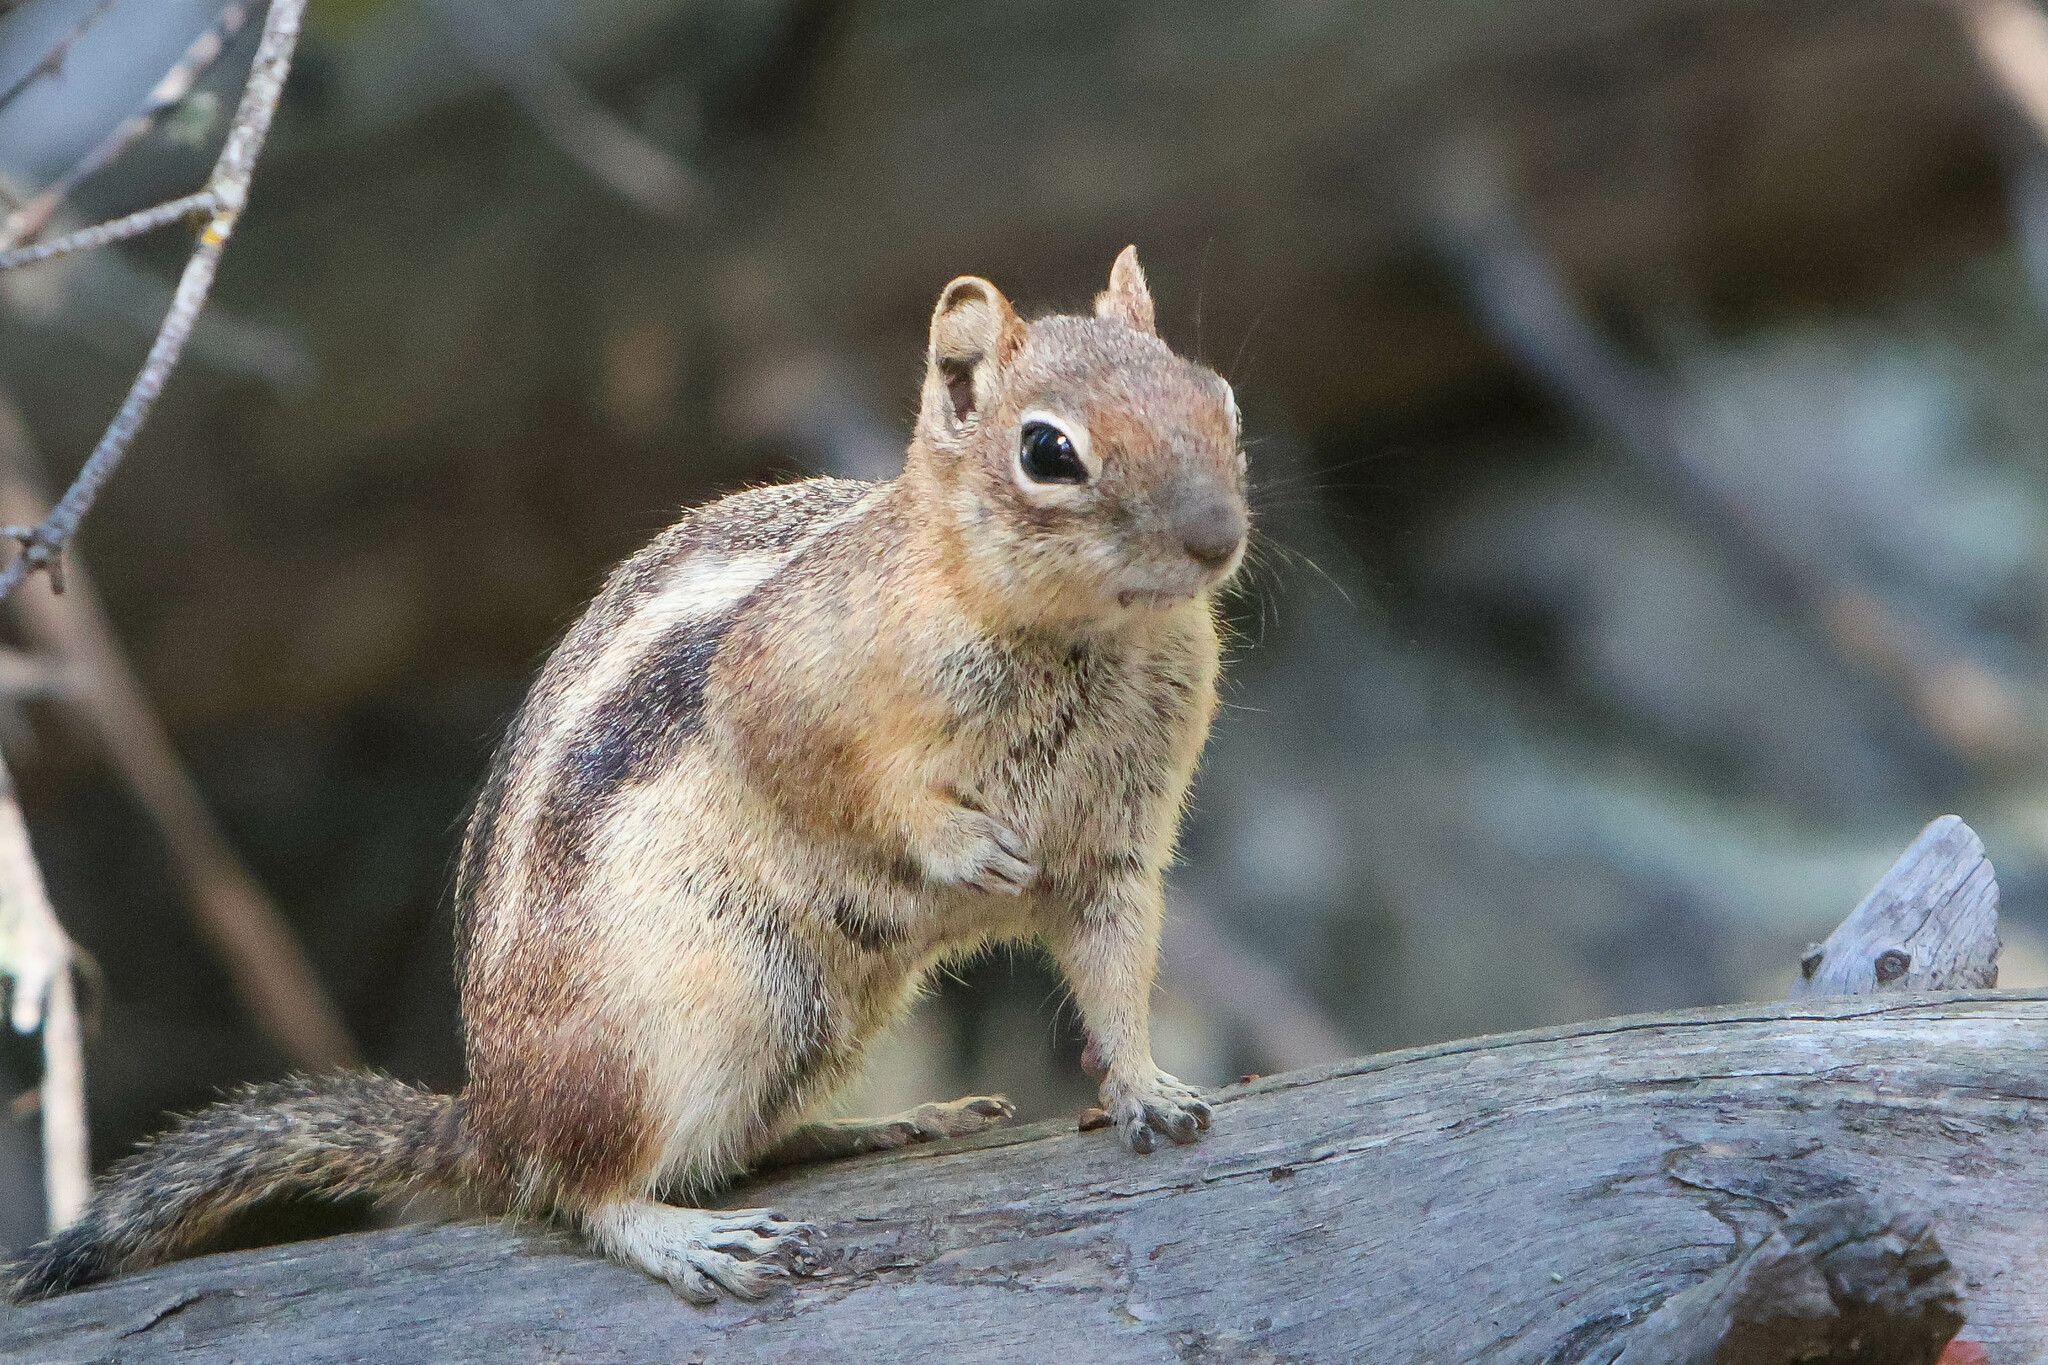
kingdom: Animalia
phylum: Chordata
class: Mammalia
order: Rodentia
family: Sciuridae
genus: Callospermophilus
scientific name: Callospermophilus lateralis
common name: Golden-mantled ground squirrel
